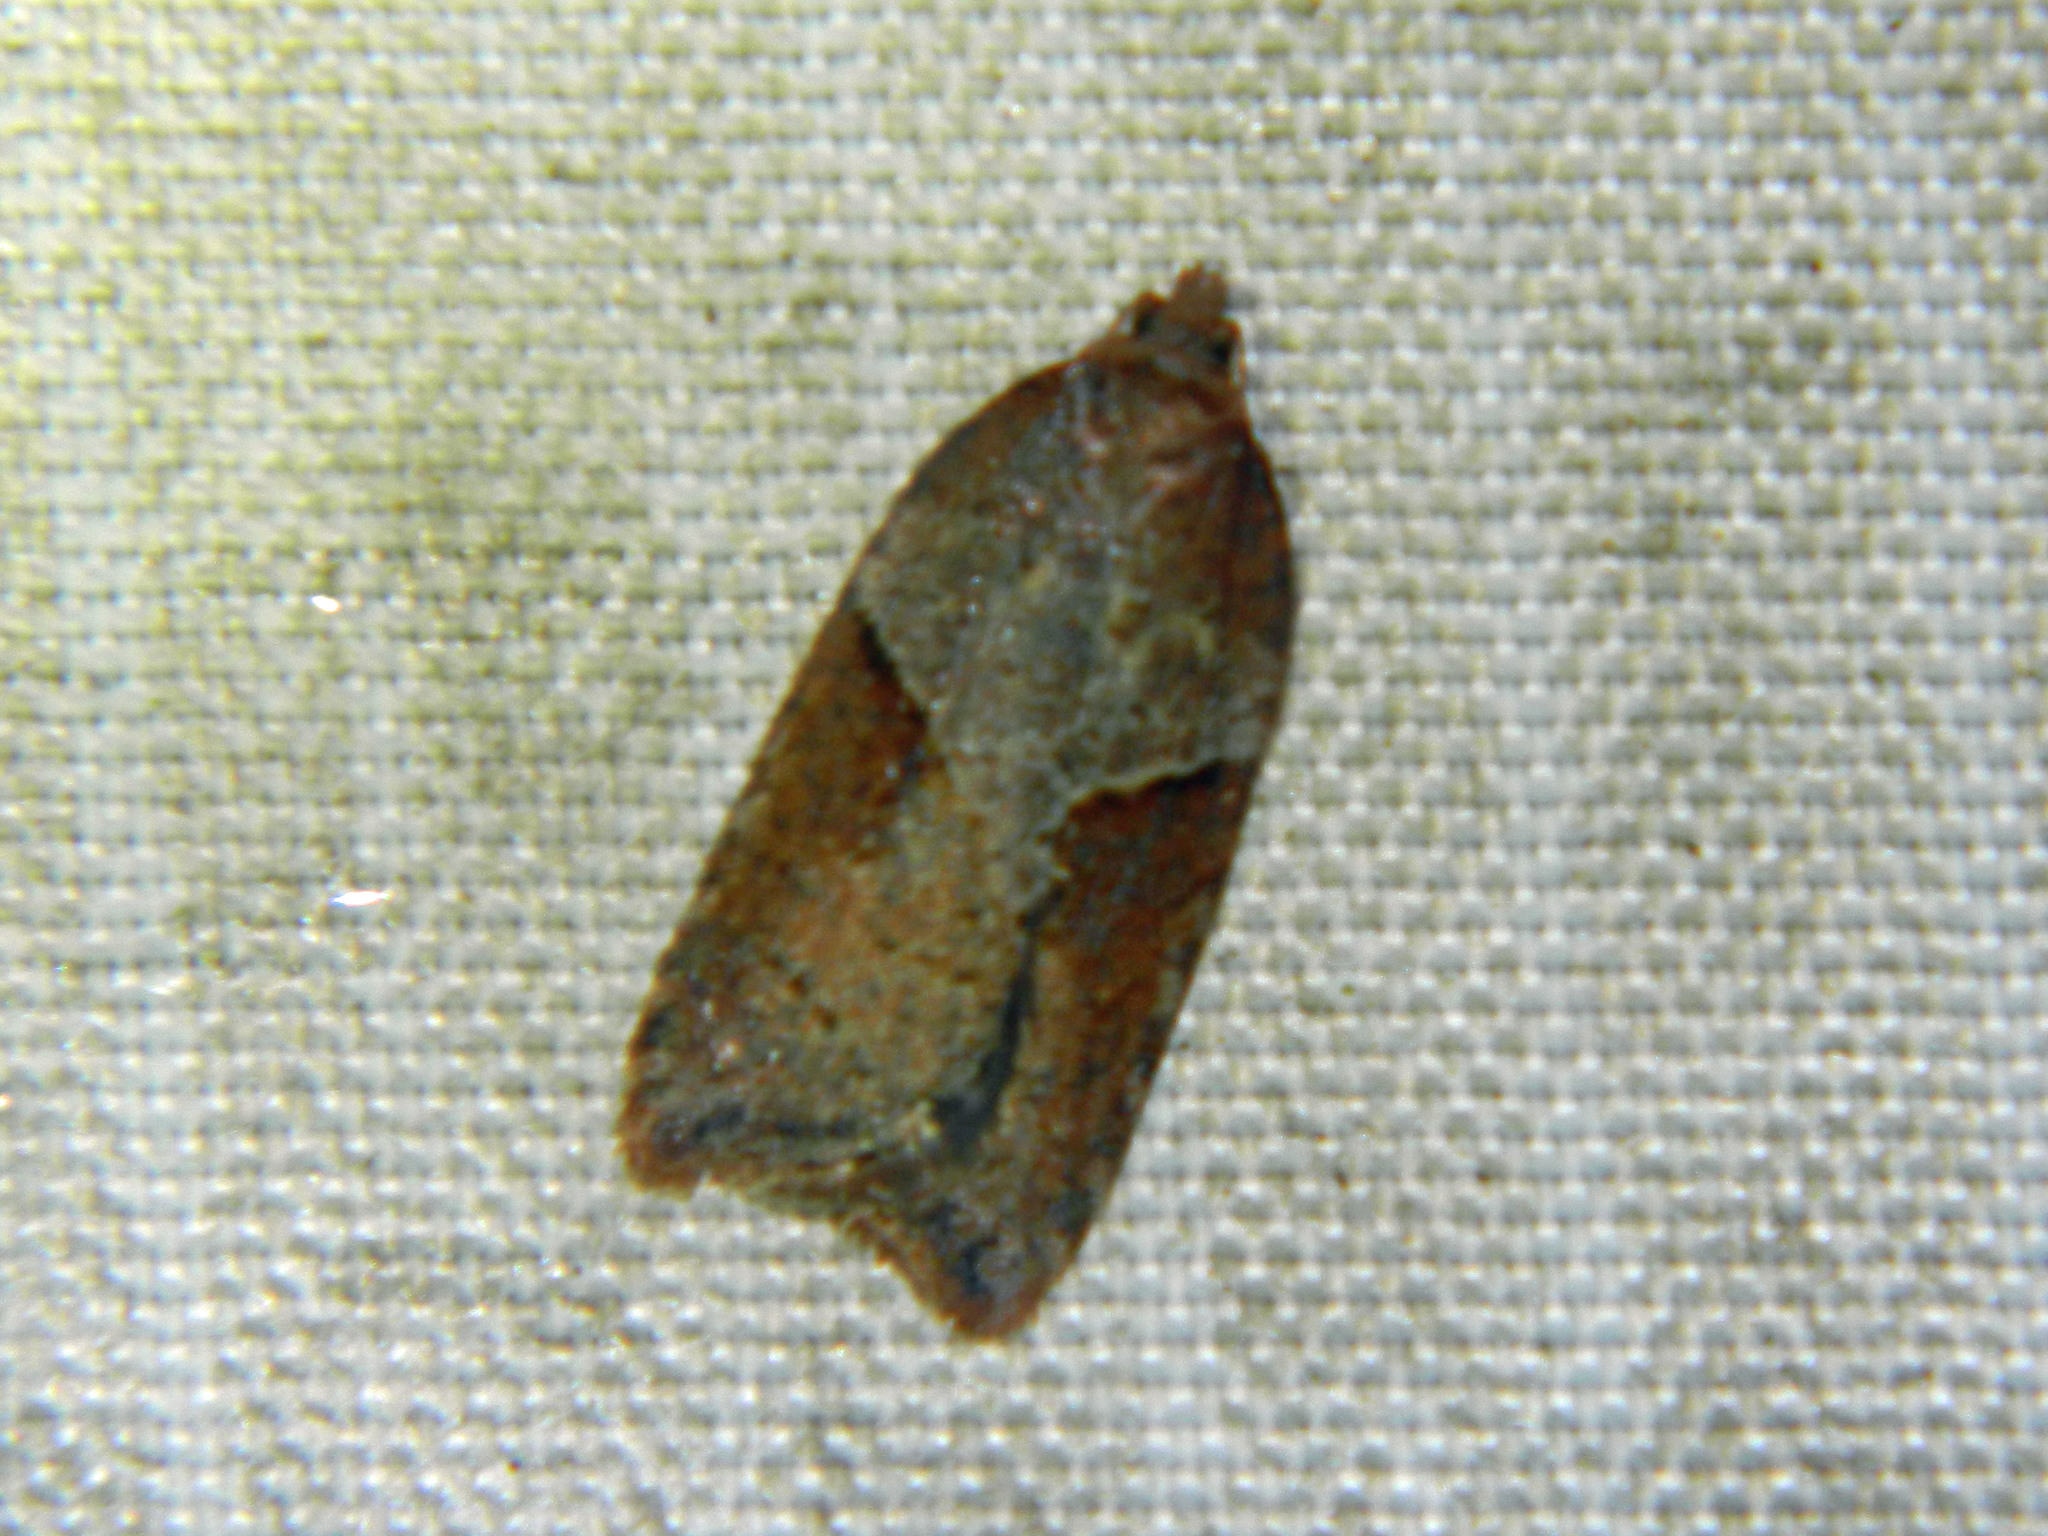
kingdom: Animalia
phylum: Arthropoda
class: Insecta
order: Lepidoptera
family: Tortricidae
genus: Acleris
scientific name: Acleris maccana
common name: Marbled button
